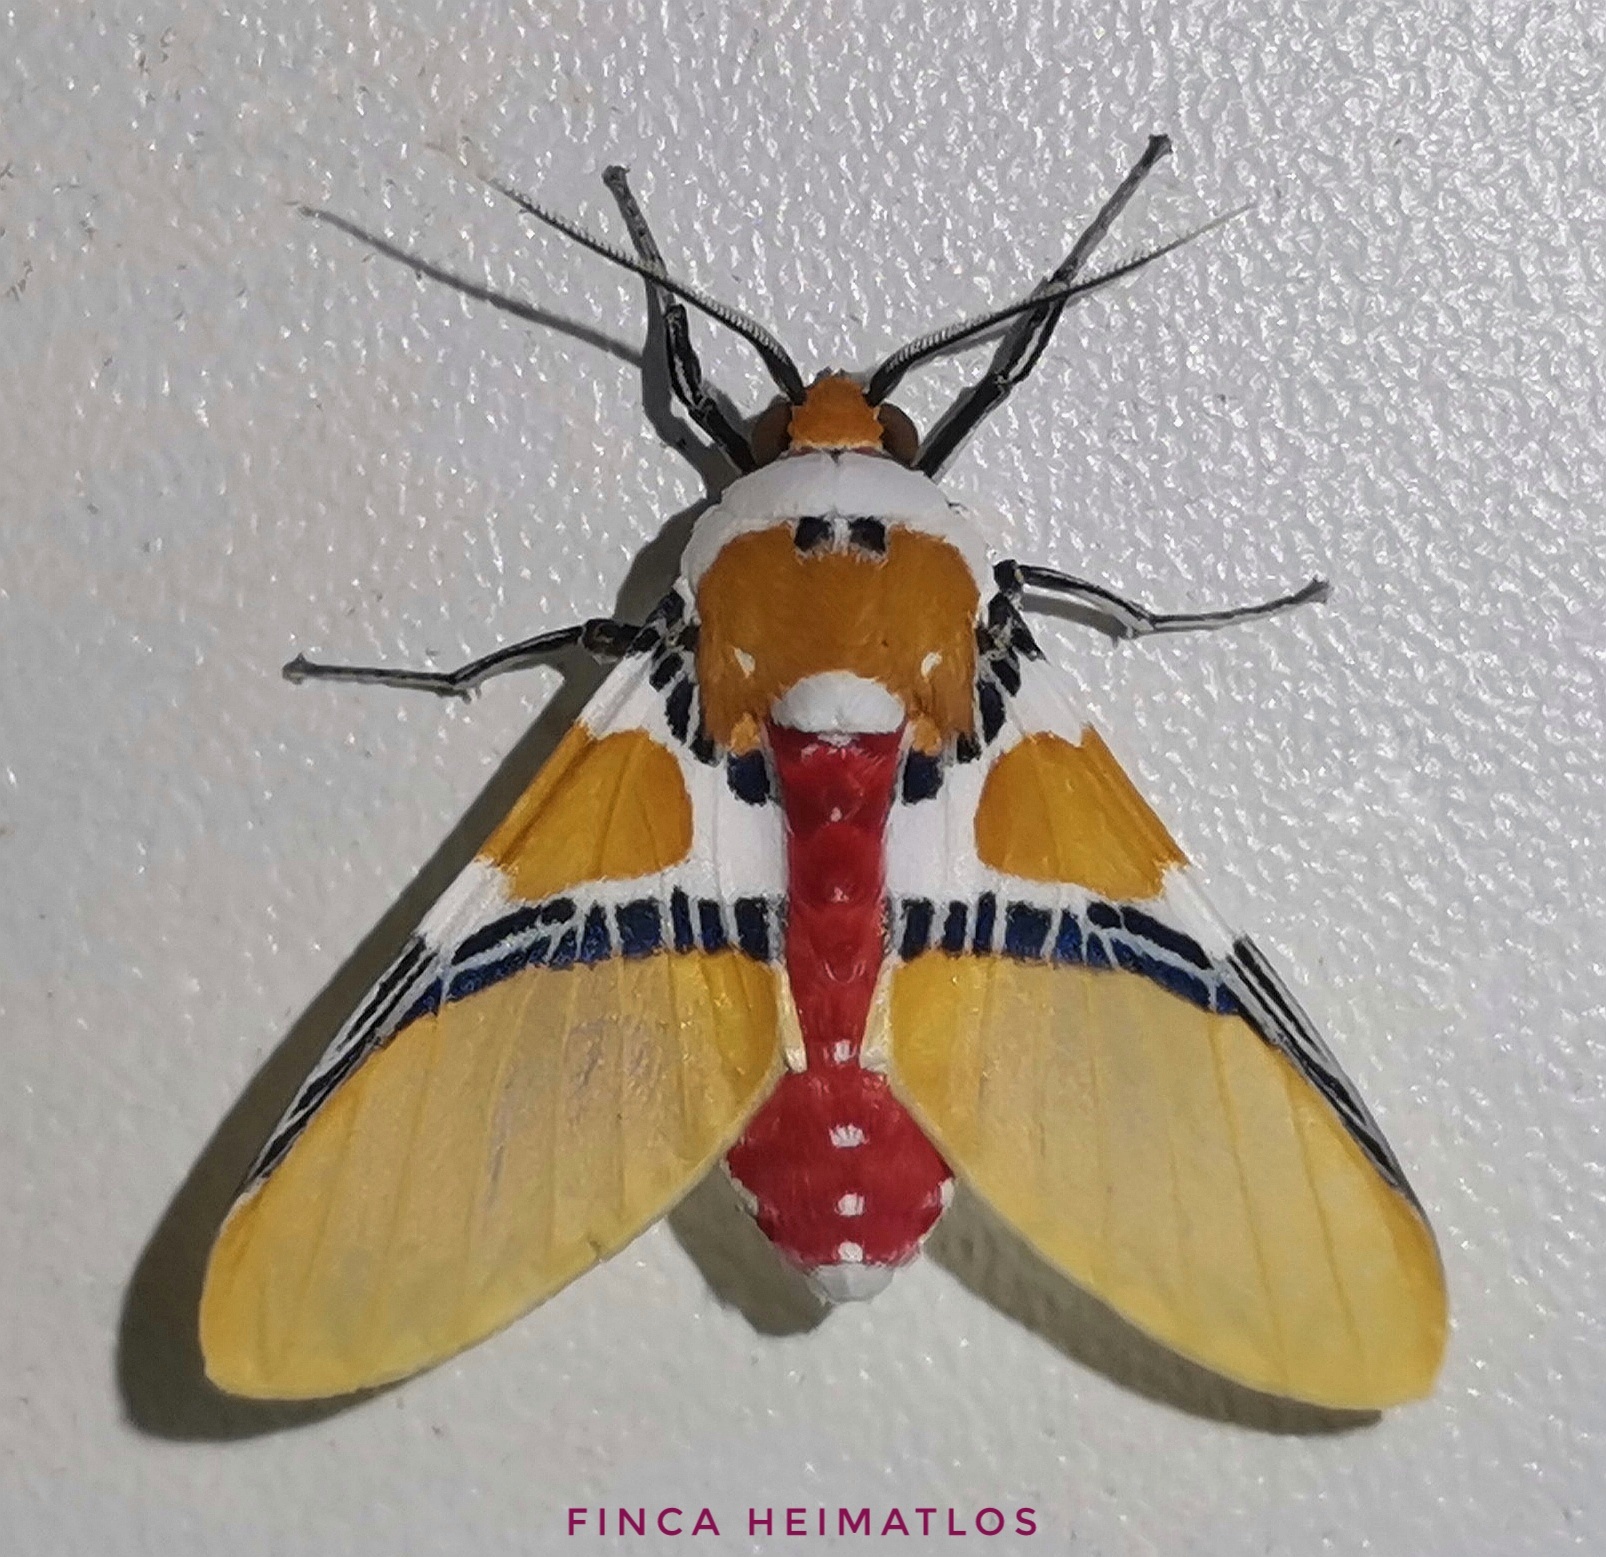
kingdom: Animalia
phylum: Arthropoda
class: Insecta
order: Lepidoptera
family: Erebidae
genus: Idalus
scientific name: Idalus critheis
